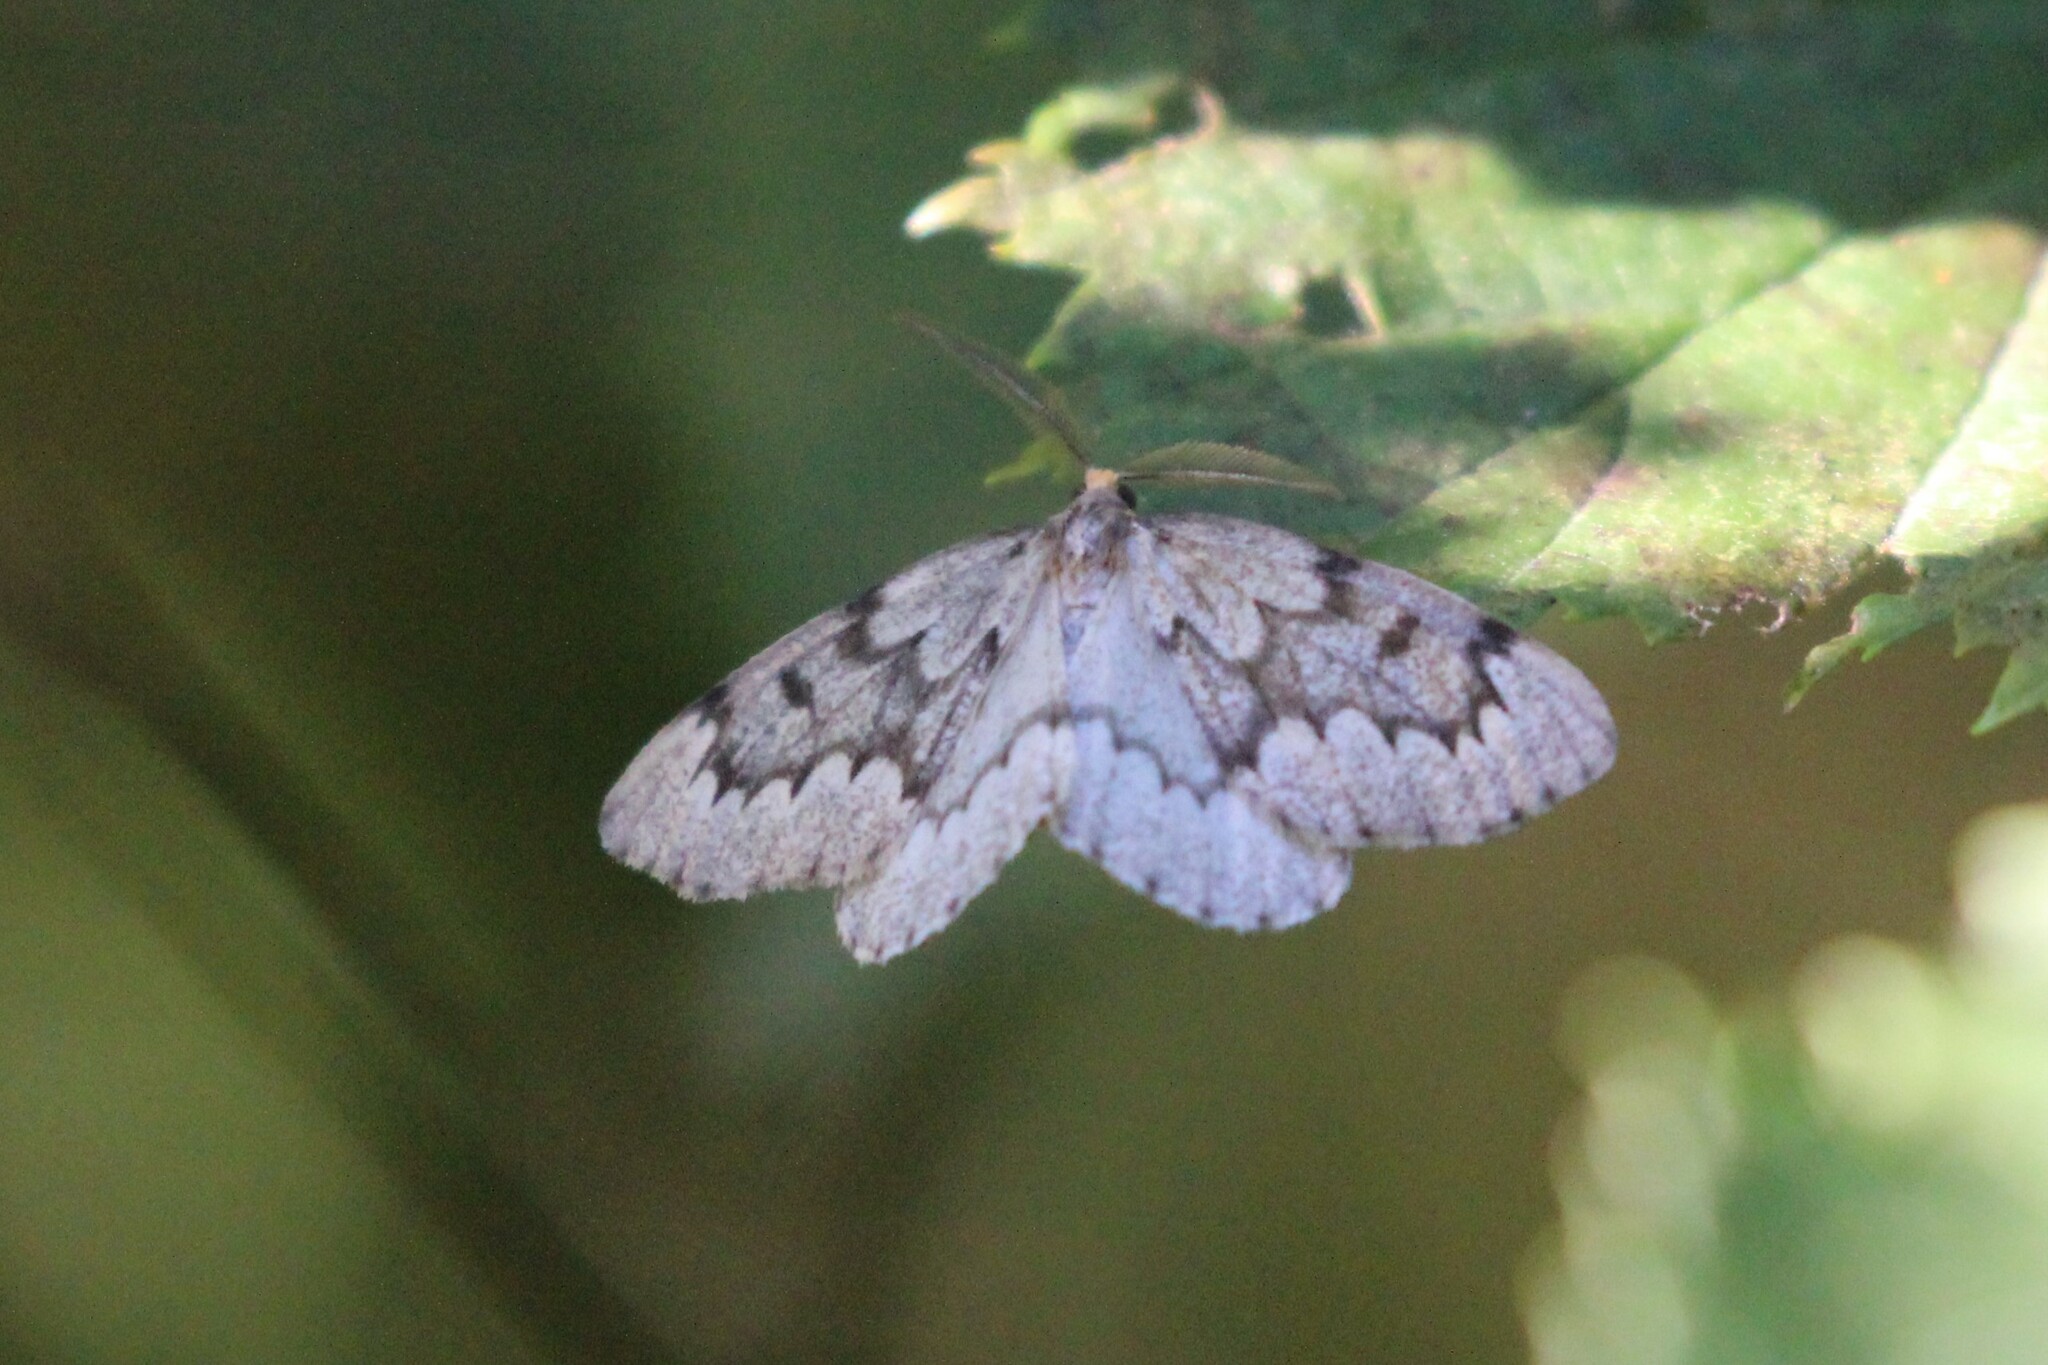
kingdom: Animalia
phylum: Arthropoda
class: Insecta
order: Lepidoptera
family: Geometridae
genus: Nepytia
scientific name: Nepytia canosaria
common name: False hemlock looper
